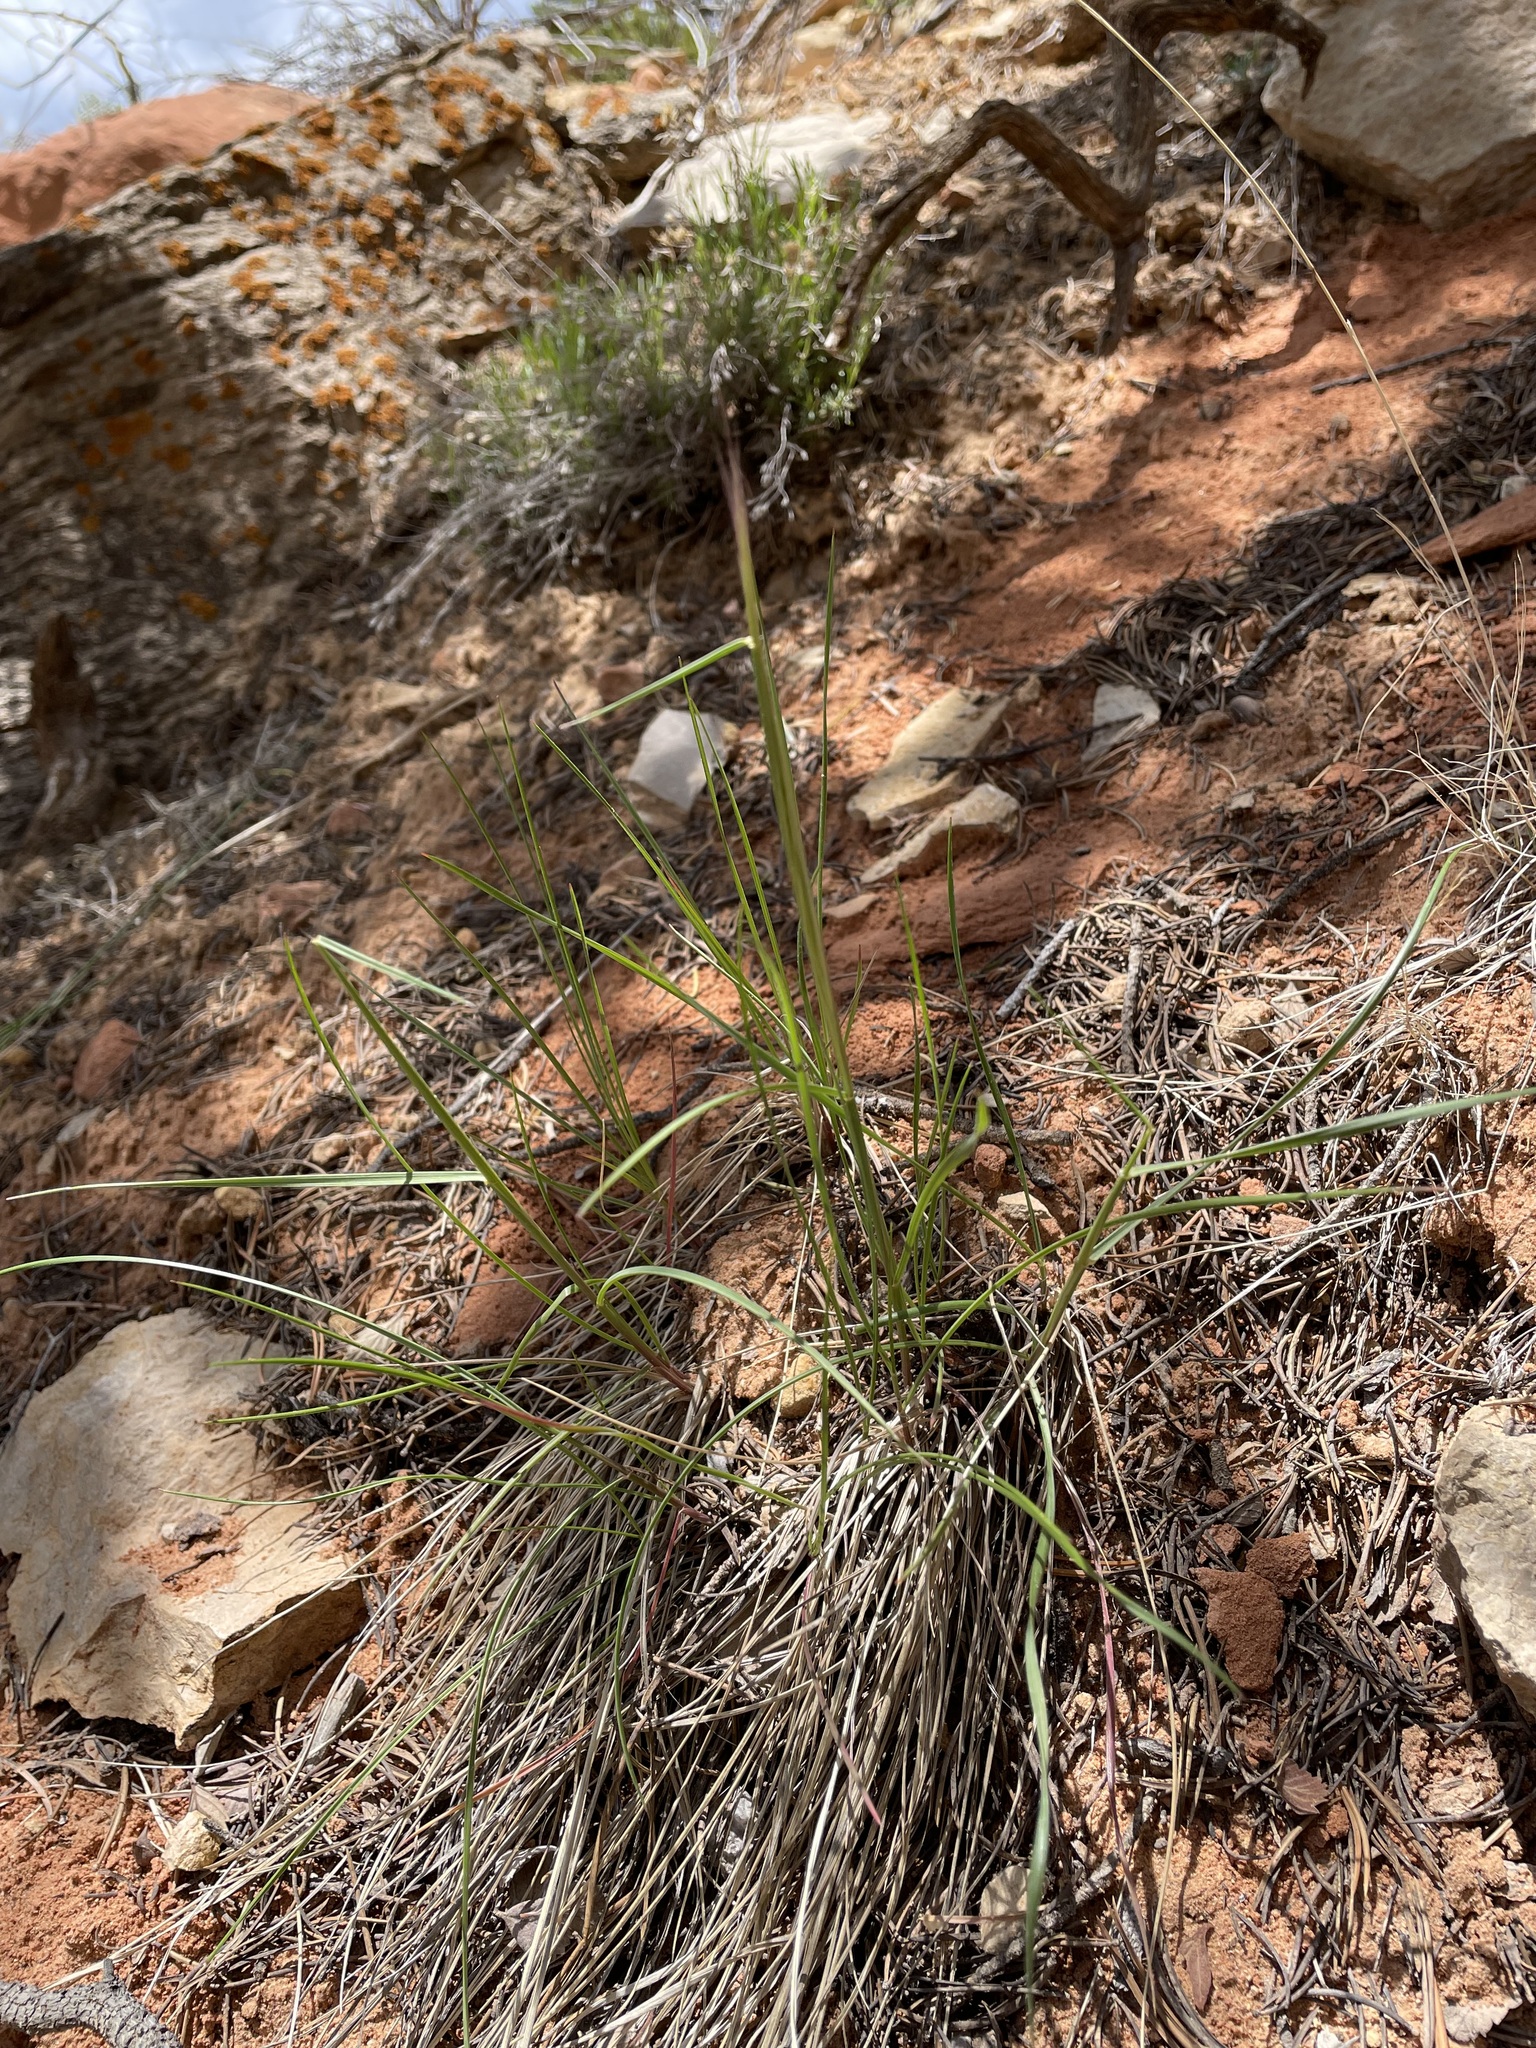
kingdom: Plantae
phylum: Tracheophyta
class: Liliopsida
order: Poales
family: Poaceae
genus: Elymus
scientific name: Elymus longifolius
